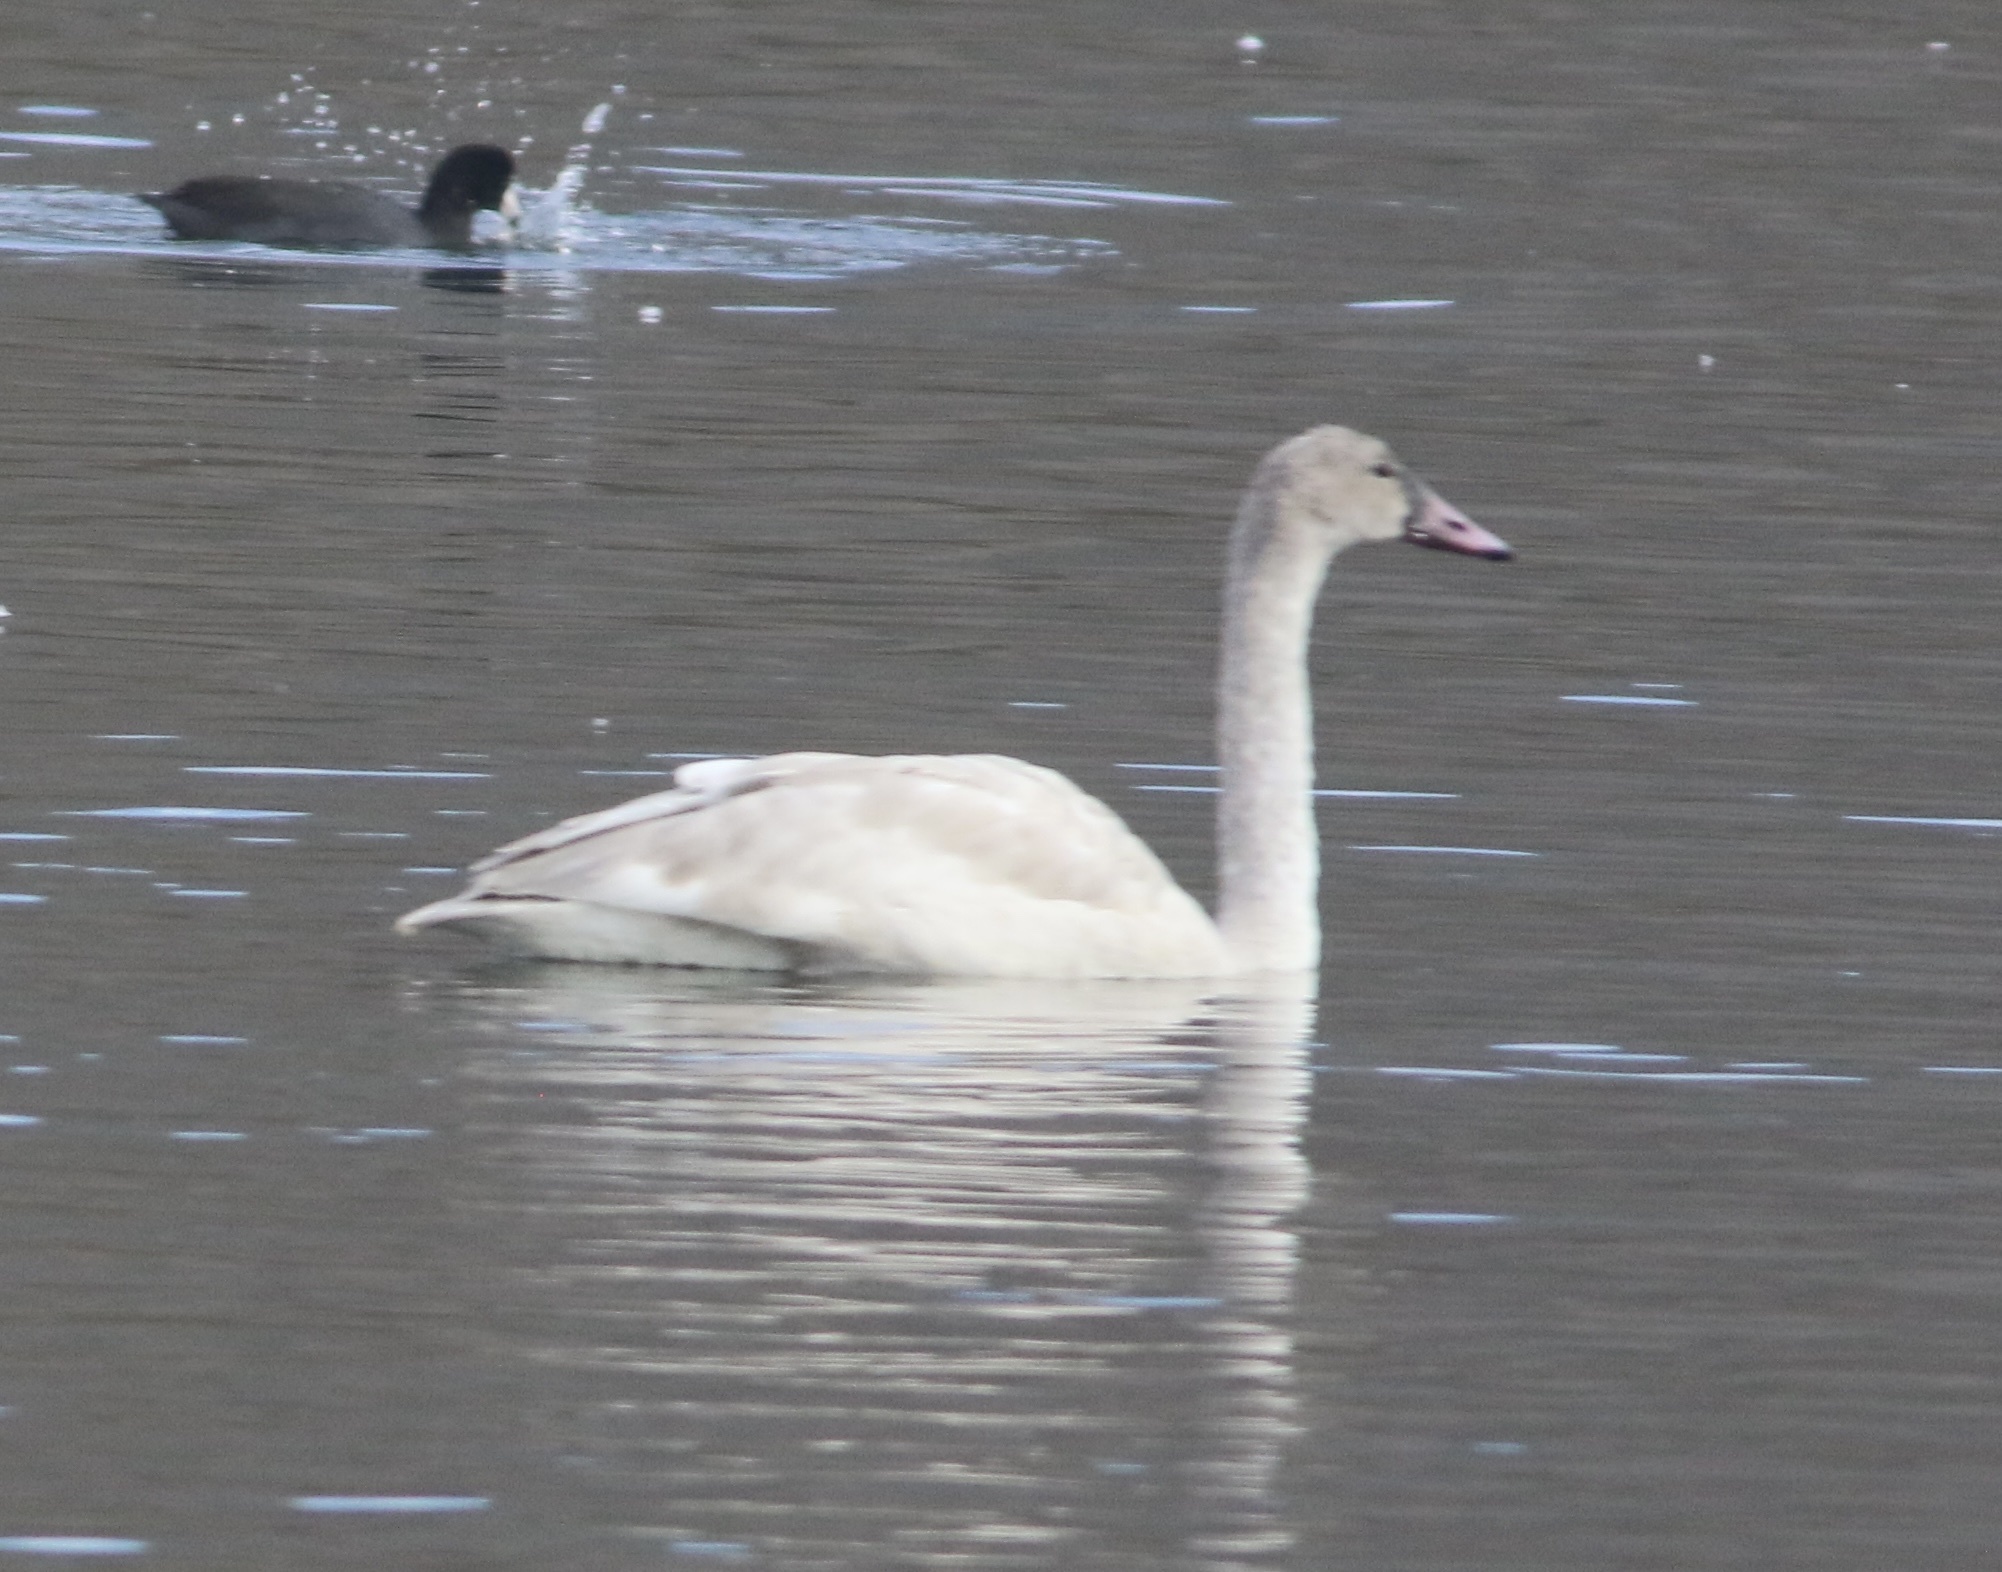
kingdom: Animalia
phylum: Chordata
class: Aves
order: Anseriformes
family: Anatidae
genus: Cygnus
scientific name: Cygnus columbianus
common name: Tundra swan
